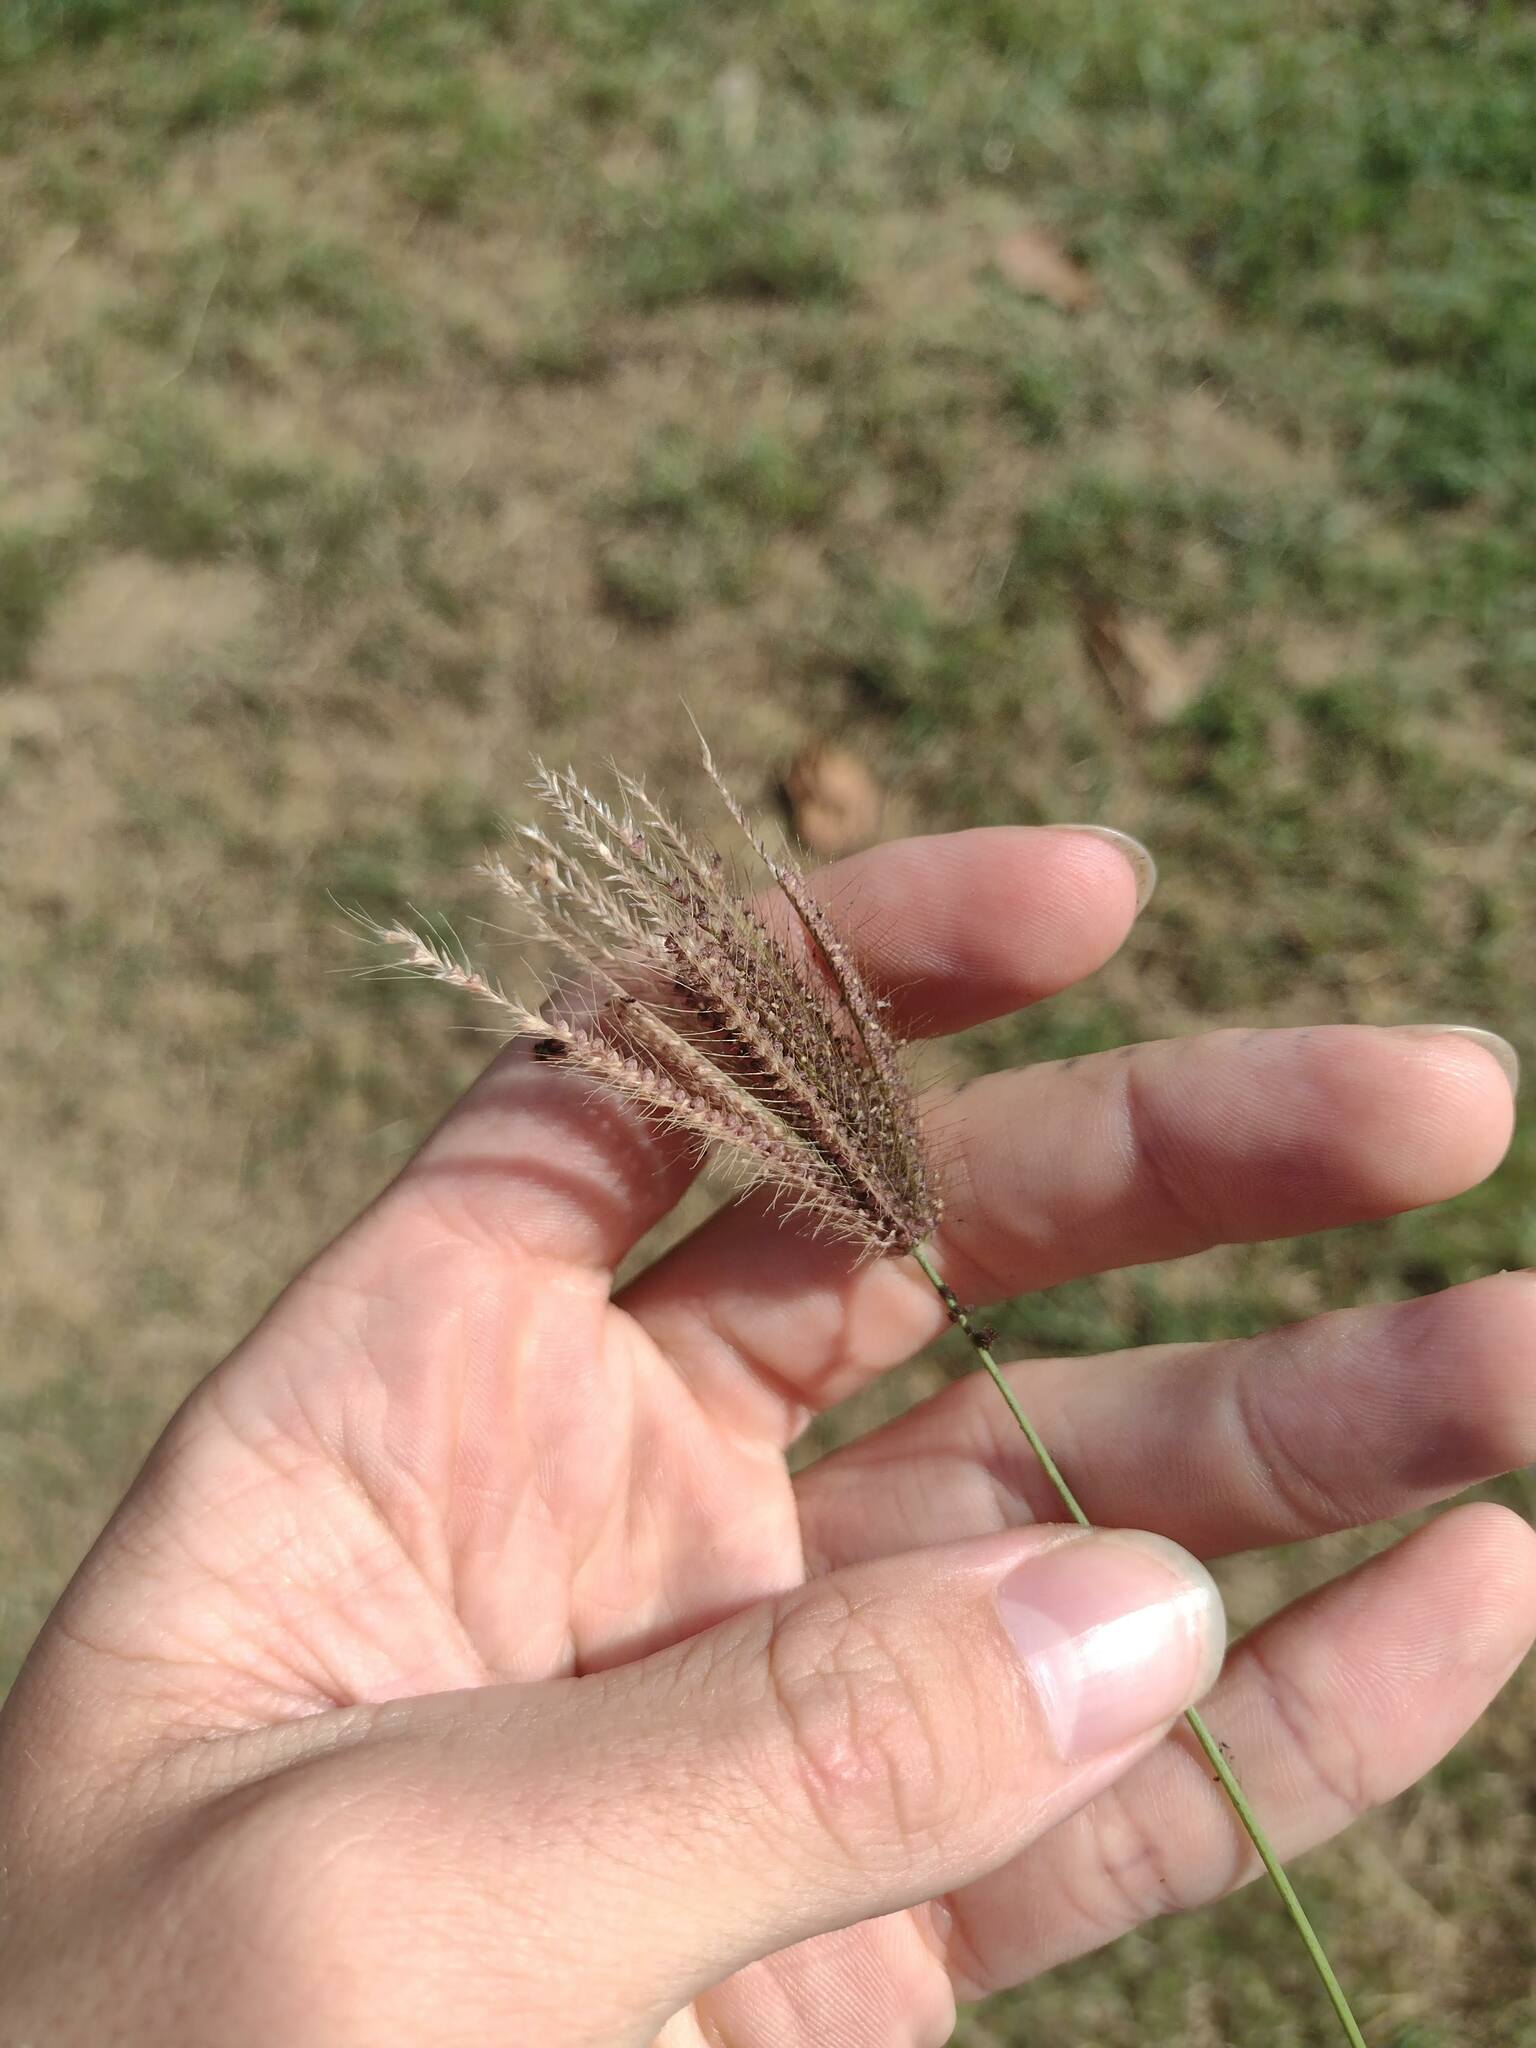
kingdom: Plantae
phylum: Tracheophyta
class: Liliopsida
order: Poales
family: Poaceae
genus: Chloris
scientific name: Chloris barbata
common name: Swollen fingergrass
